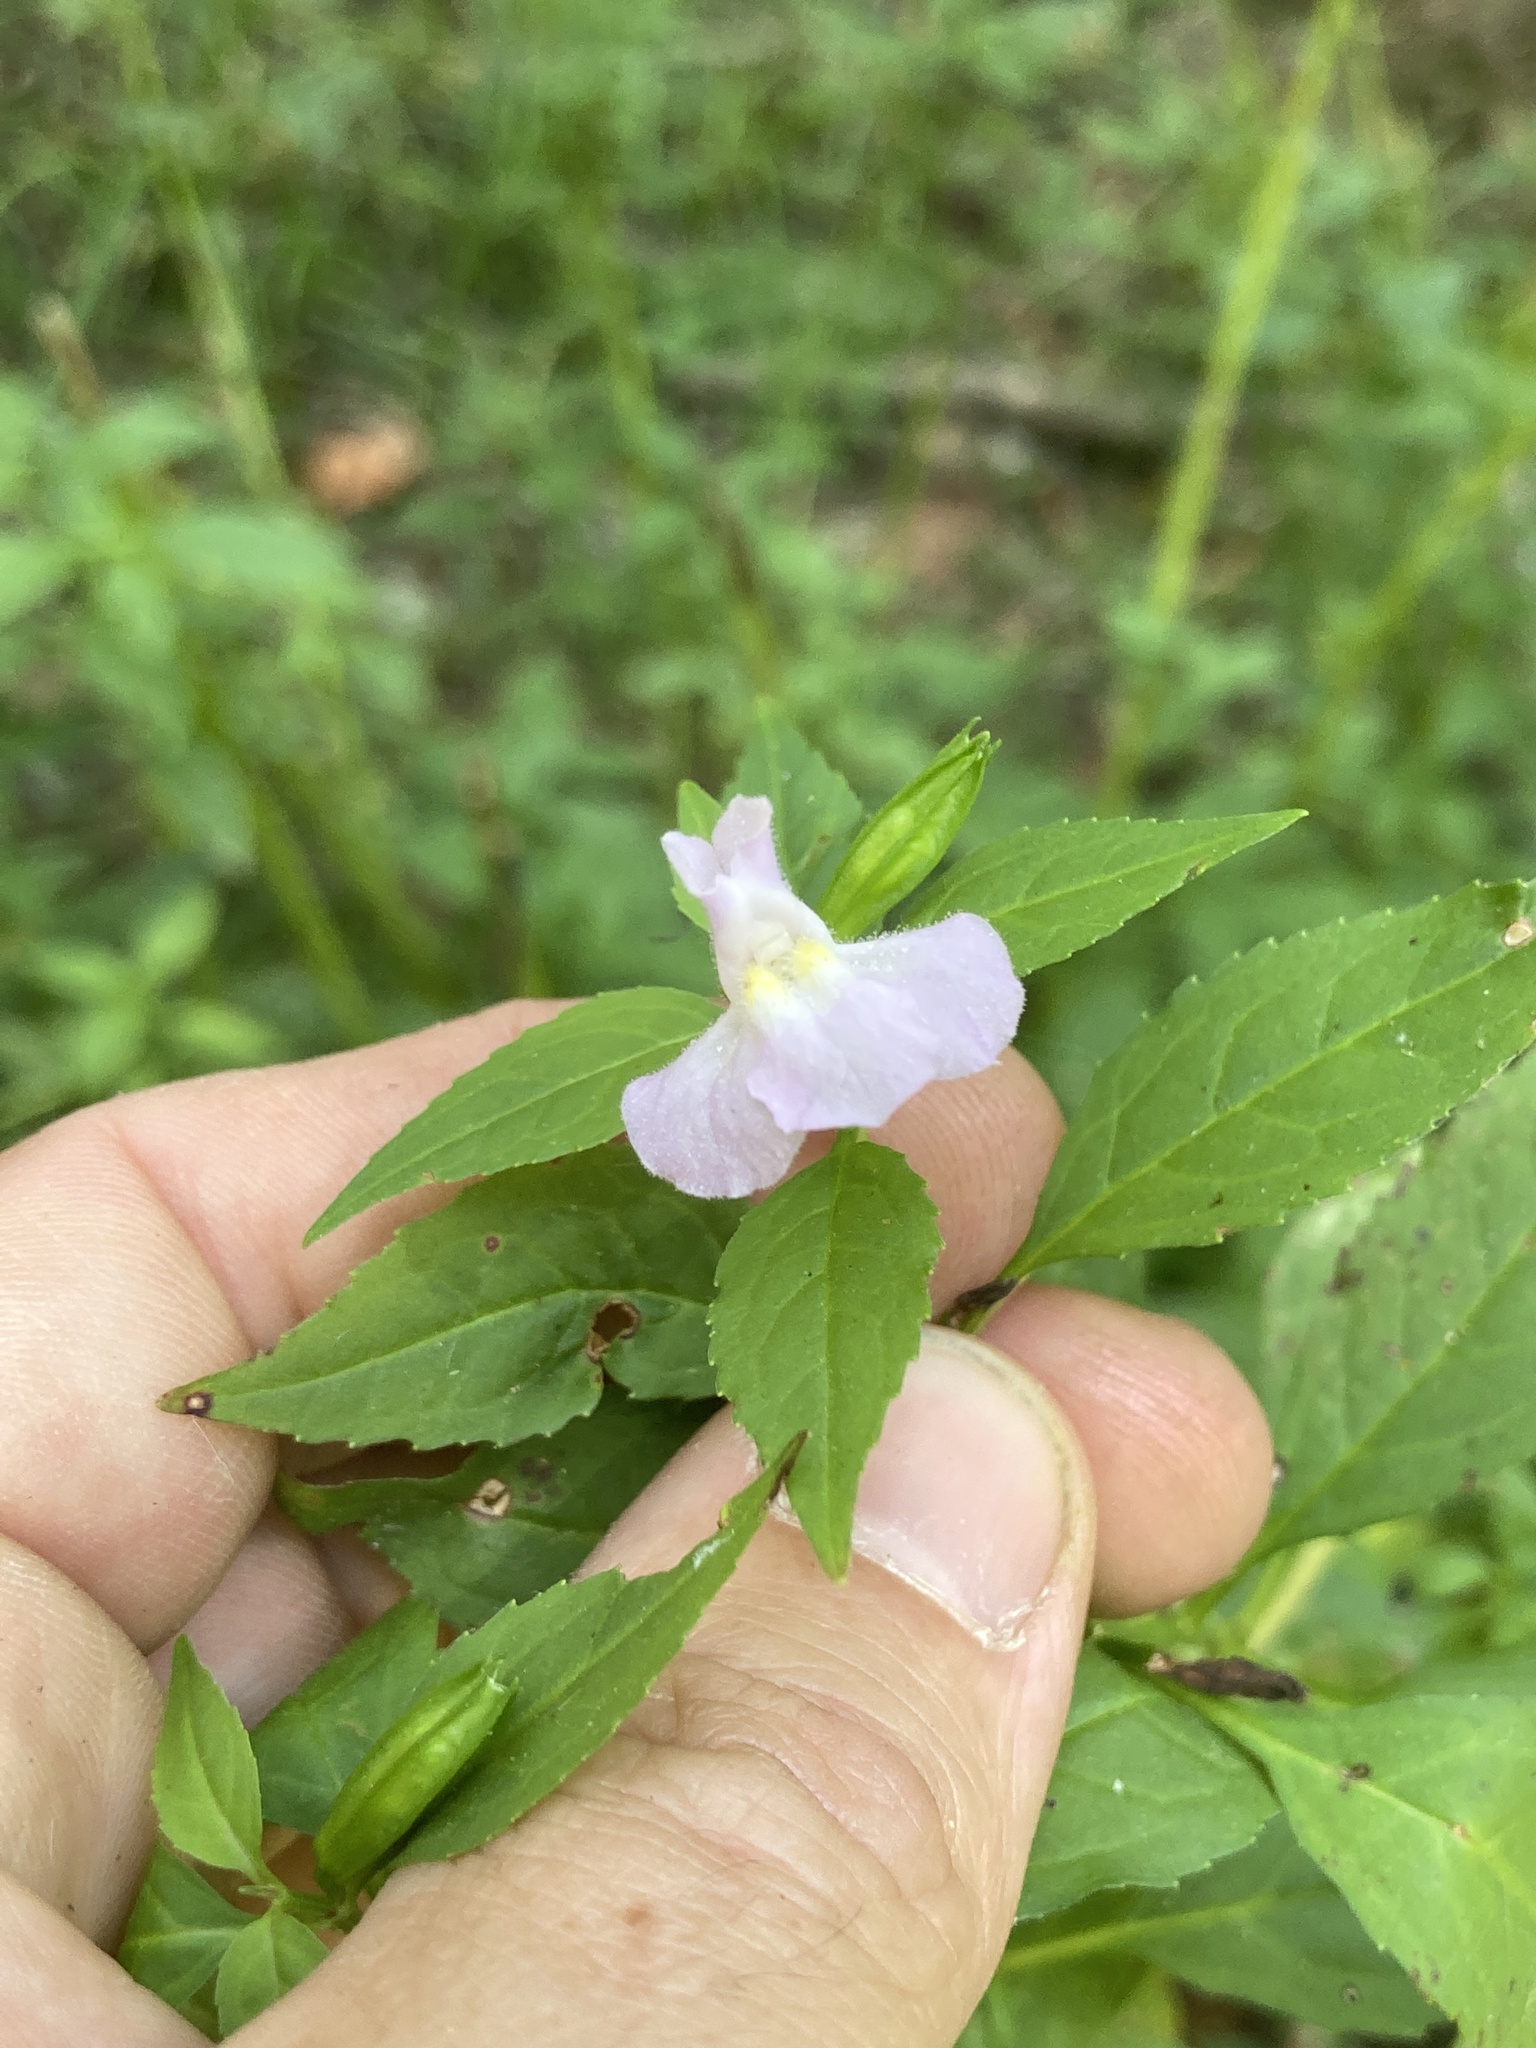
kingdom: Plantae
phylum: Tracheophyta
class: Magnoliopsida
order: Lamiales
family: Phrymaceae
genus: Mimulus
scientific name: Mimulus alatus
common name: Sharp-wing monkey-flower
